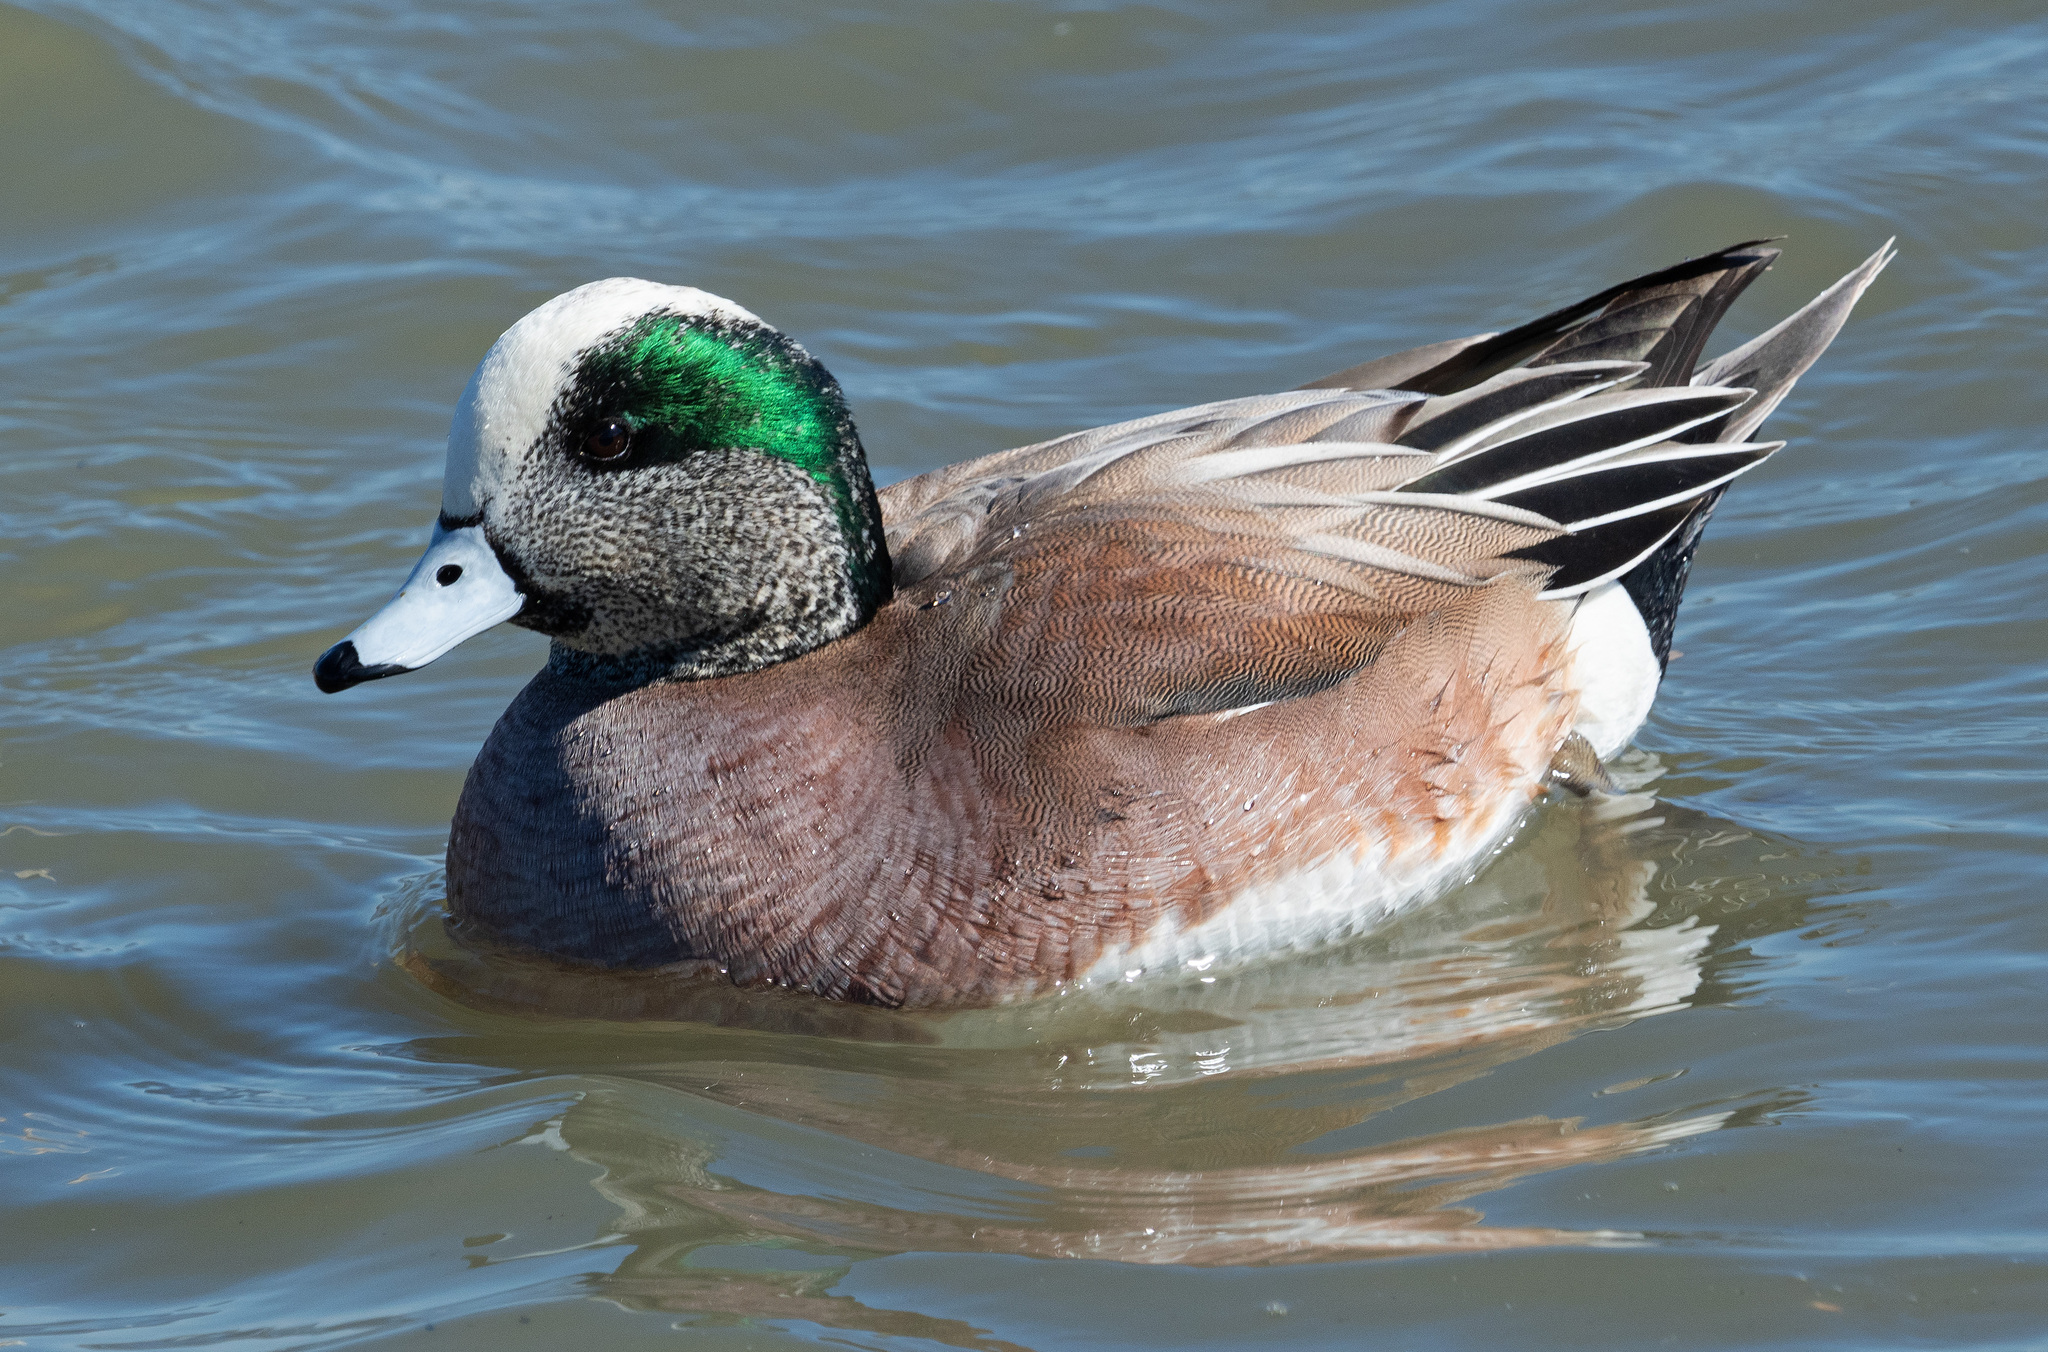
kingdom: Animalia
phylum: Chordata
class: Aves
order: Anseriformes
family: Anatidae
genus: Mareca
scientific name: Mareca americana
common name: American wigeon
